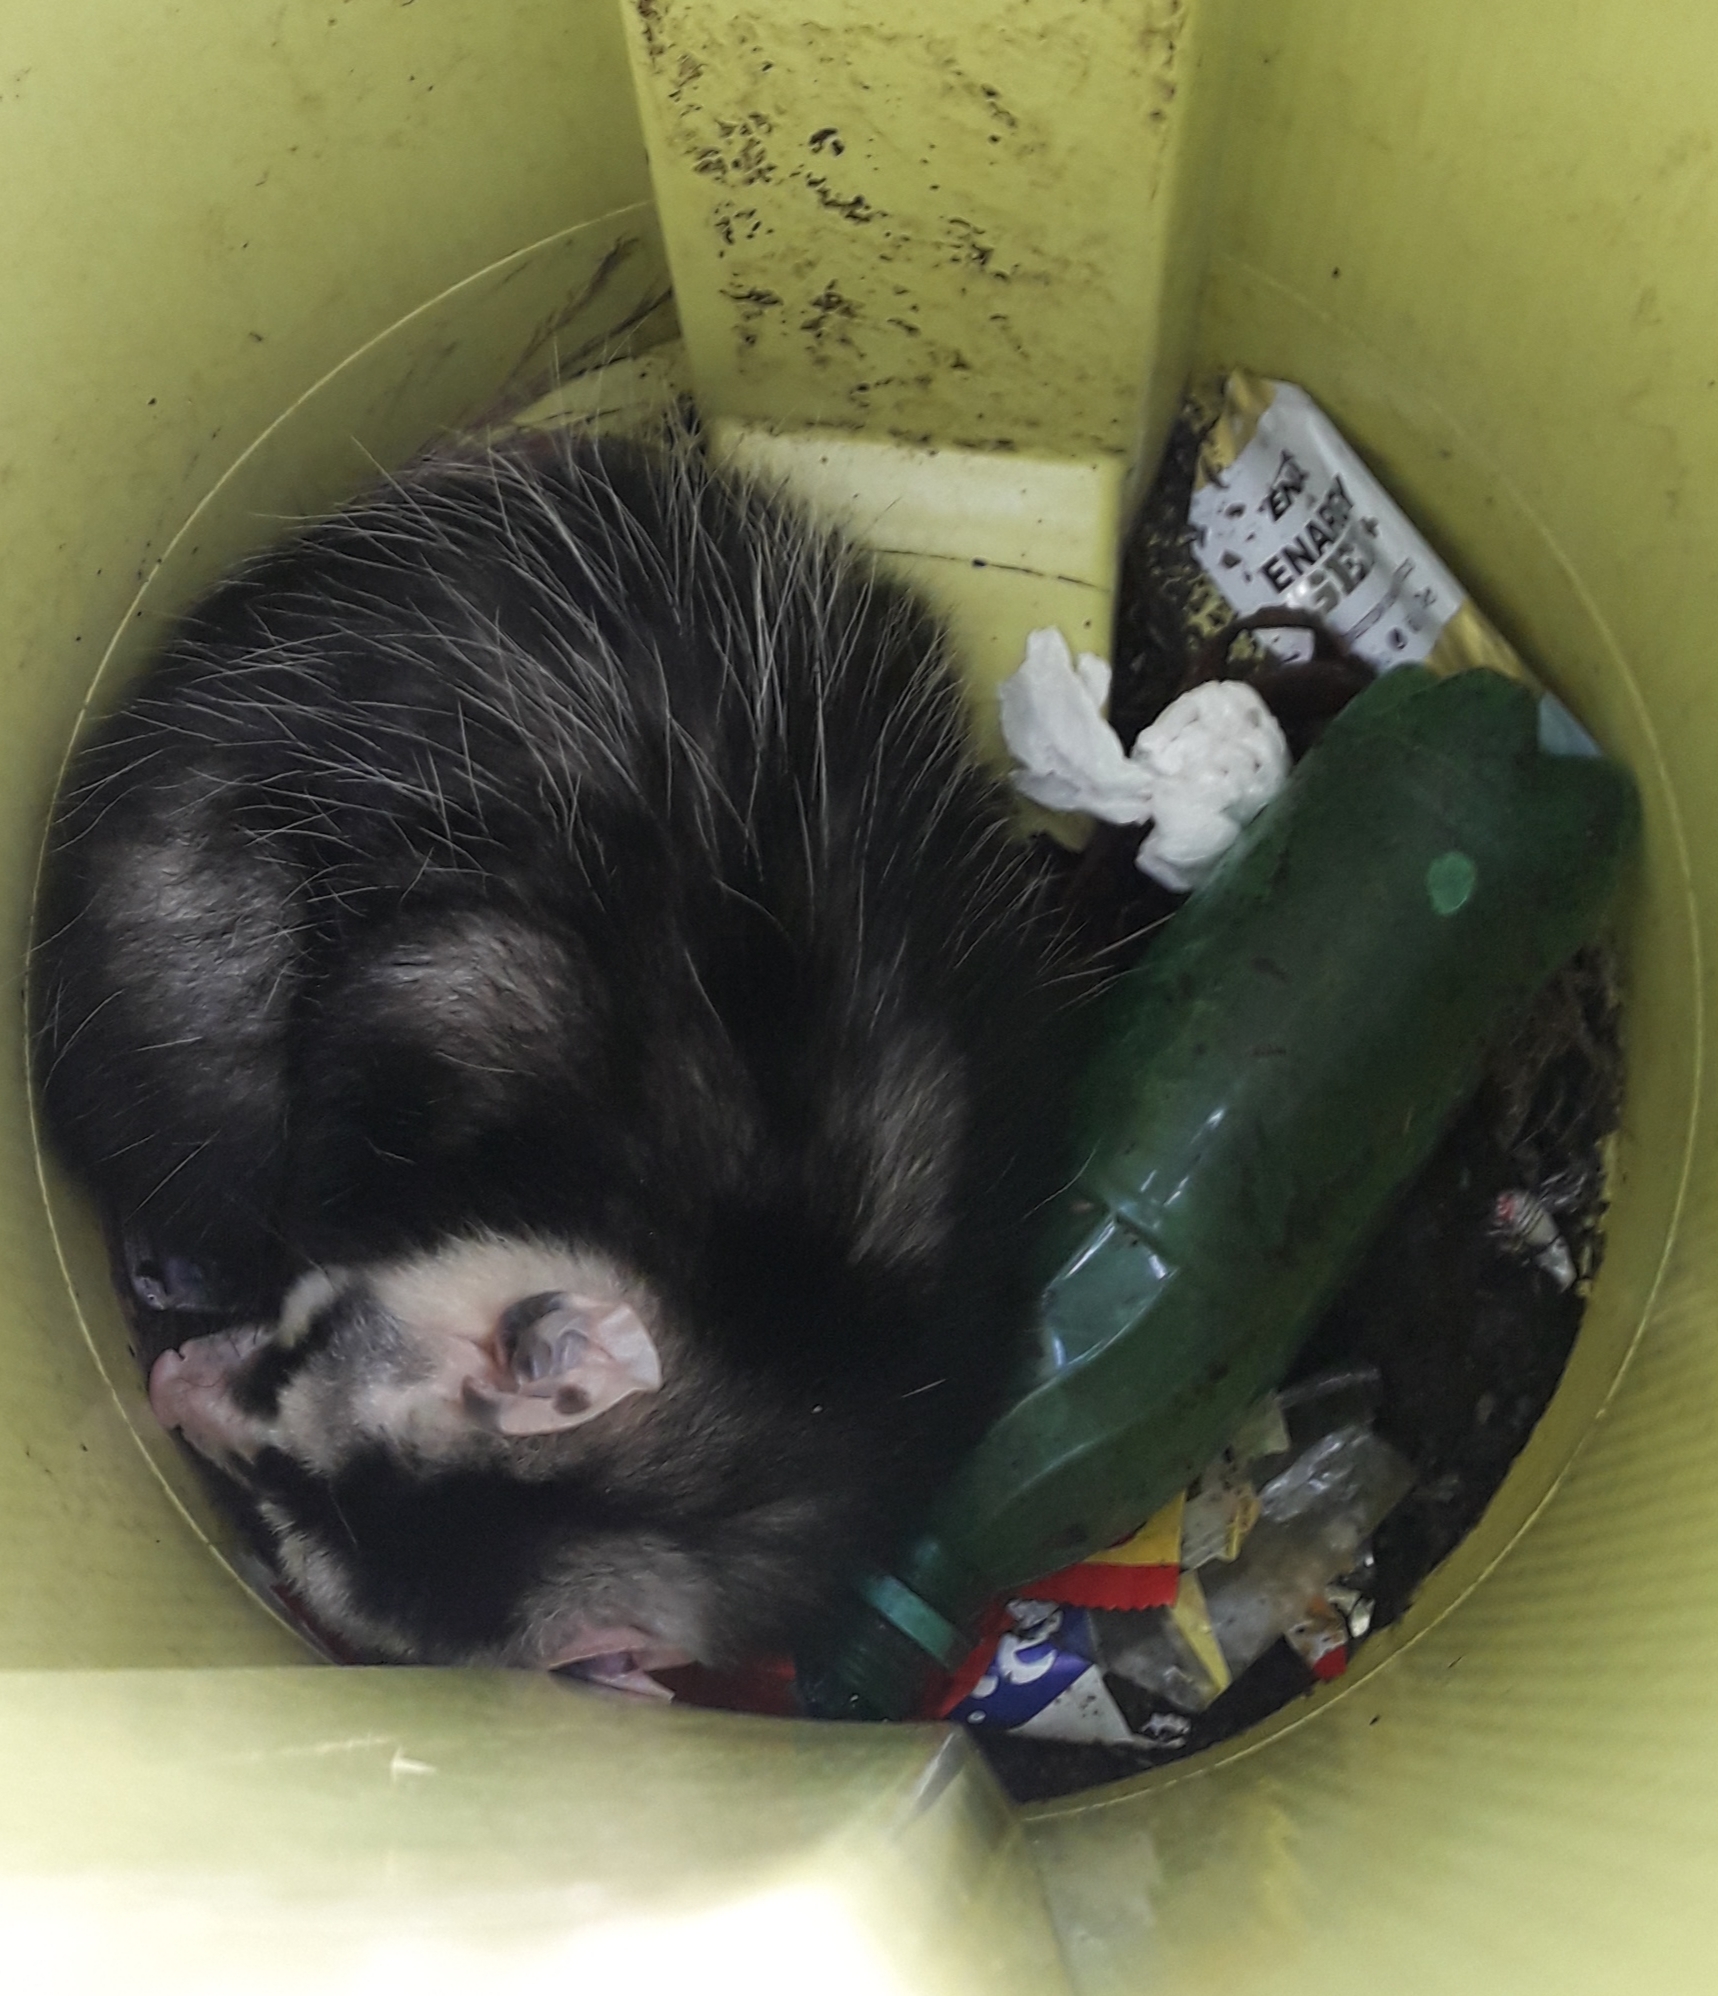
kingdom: Animalia
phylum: Chordata
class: Mammalia
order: Didelphimorphia
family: Didelphidae
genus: Didelphis
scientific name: Didelphis albiventris
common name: White-eared opossum
